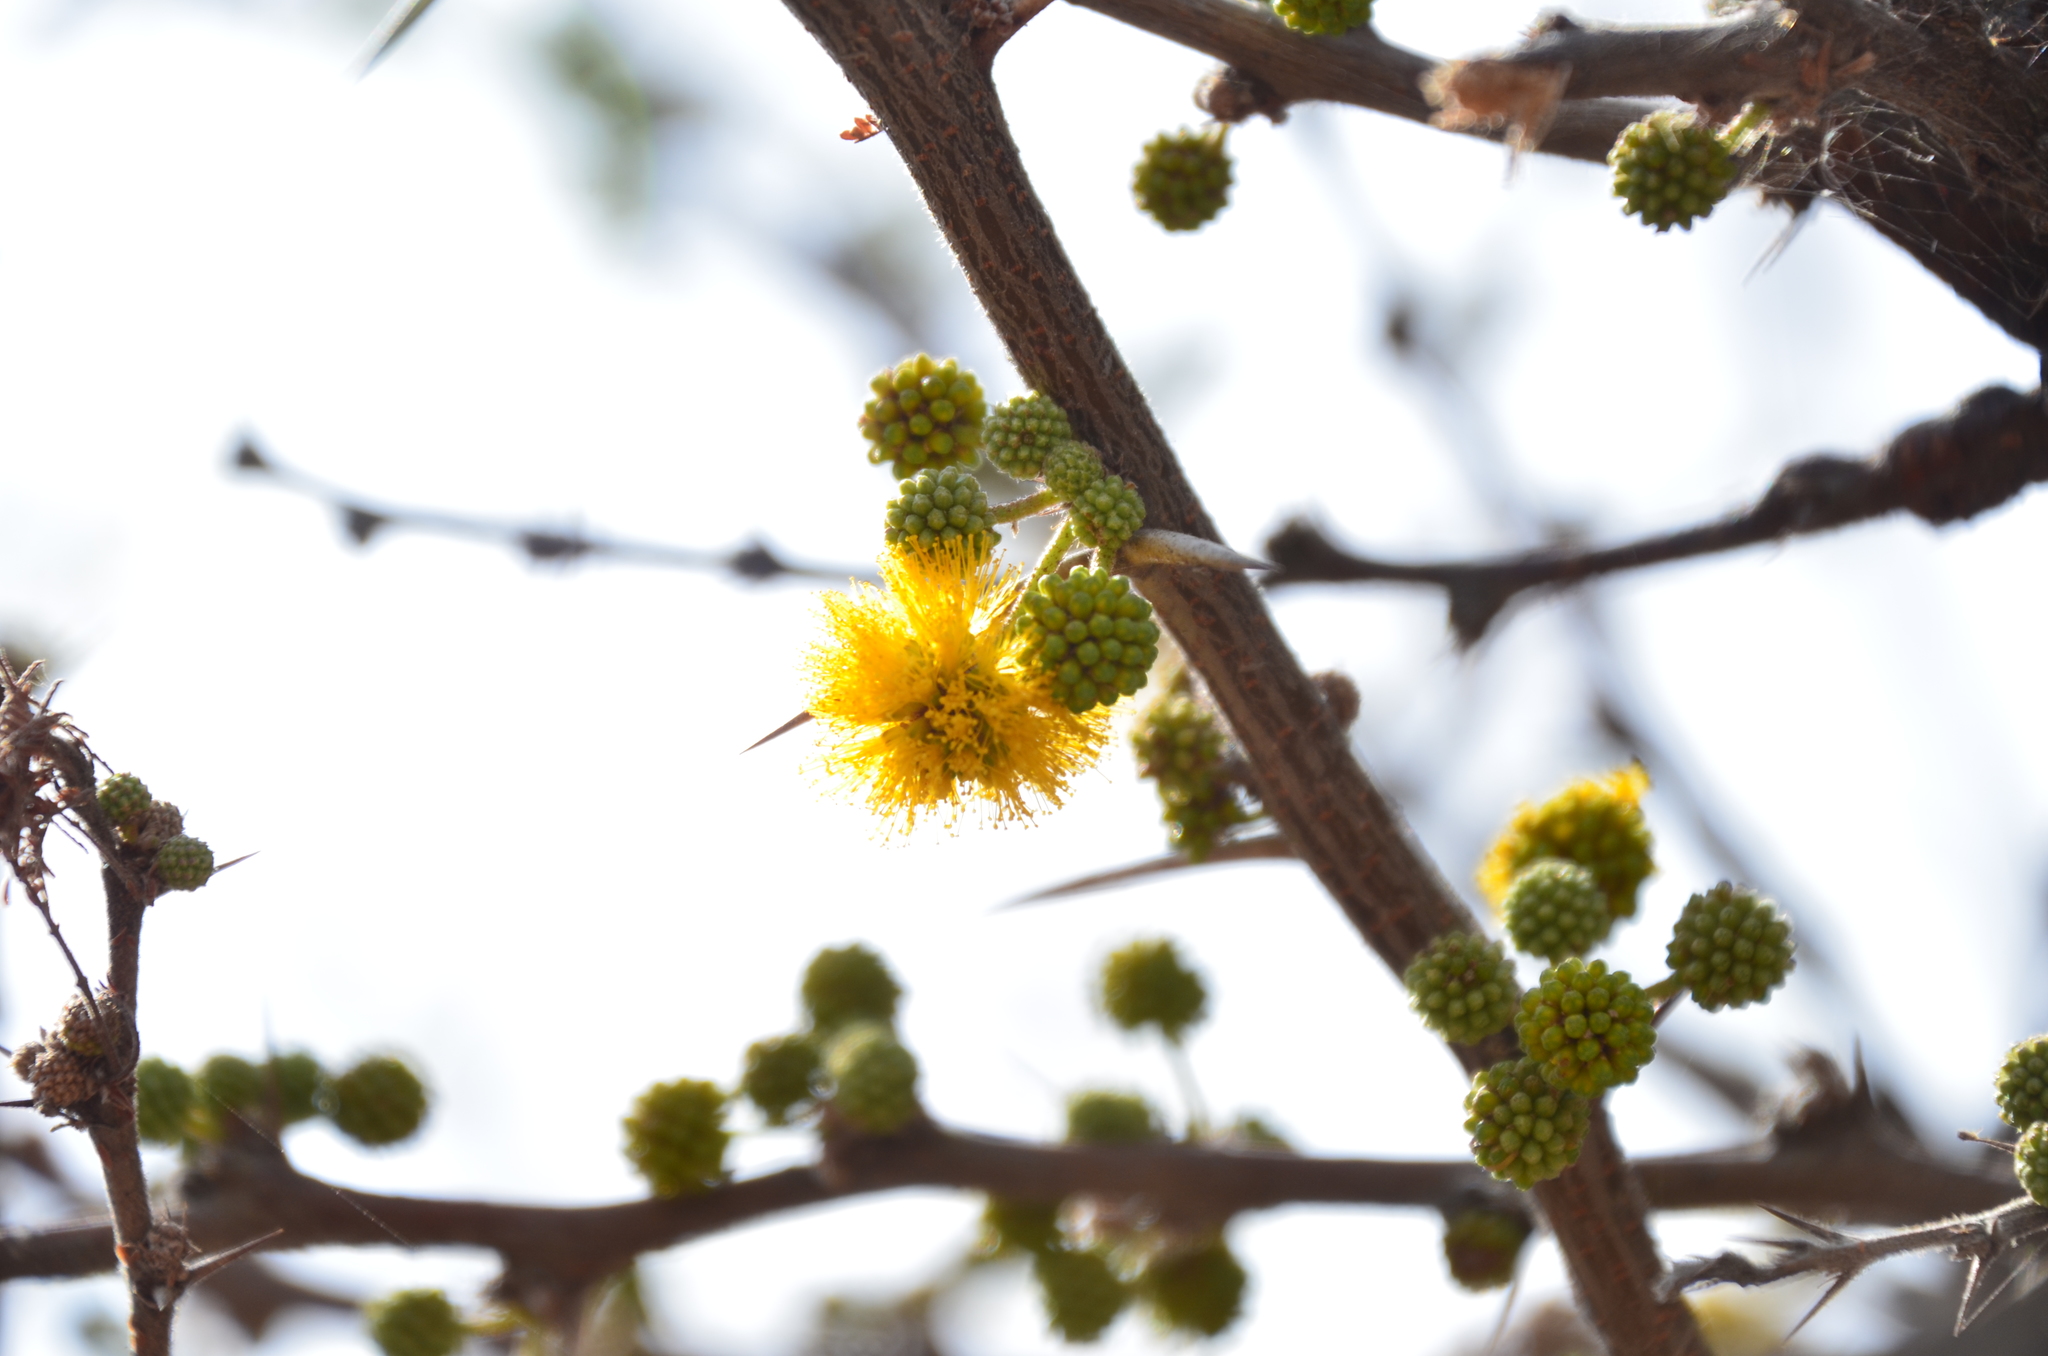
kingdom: Plantae
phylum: Tracheophyta
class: Magnoliopsida
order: Fabales
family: Fabaceae
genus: Vachellia
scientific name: Vachellia caven
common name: Roman cassie
